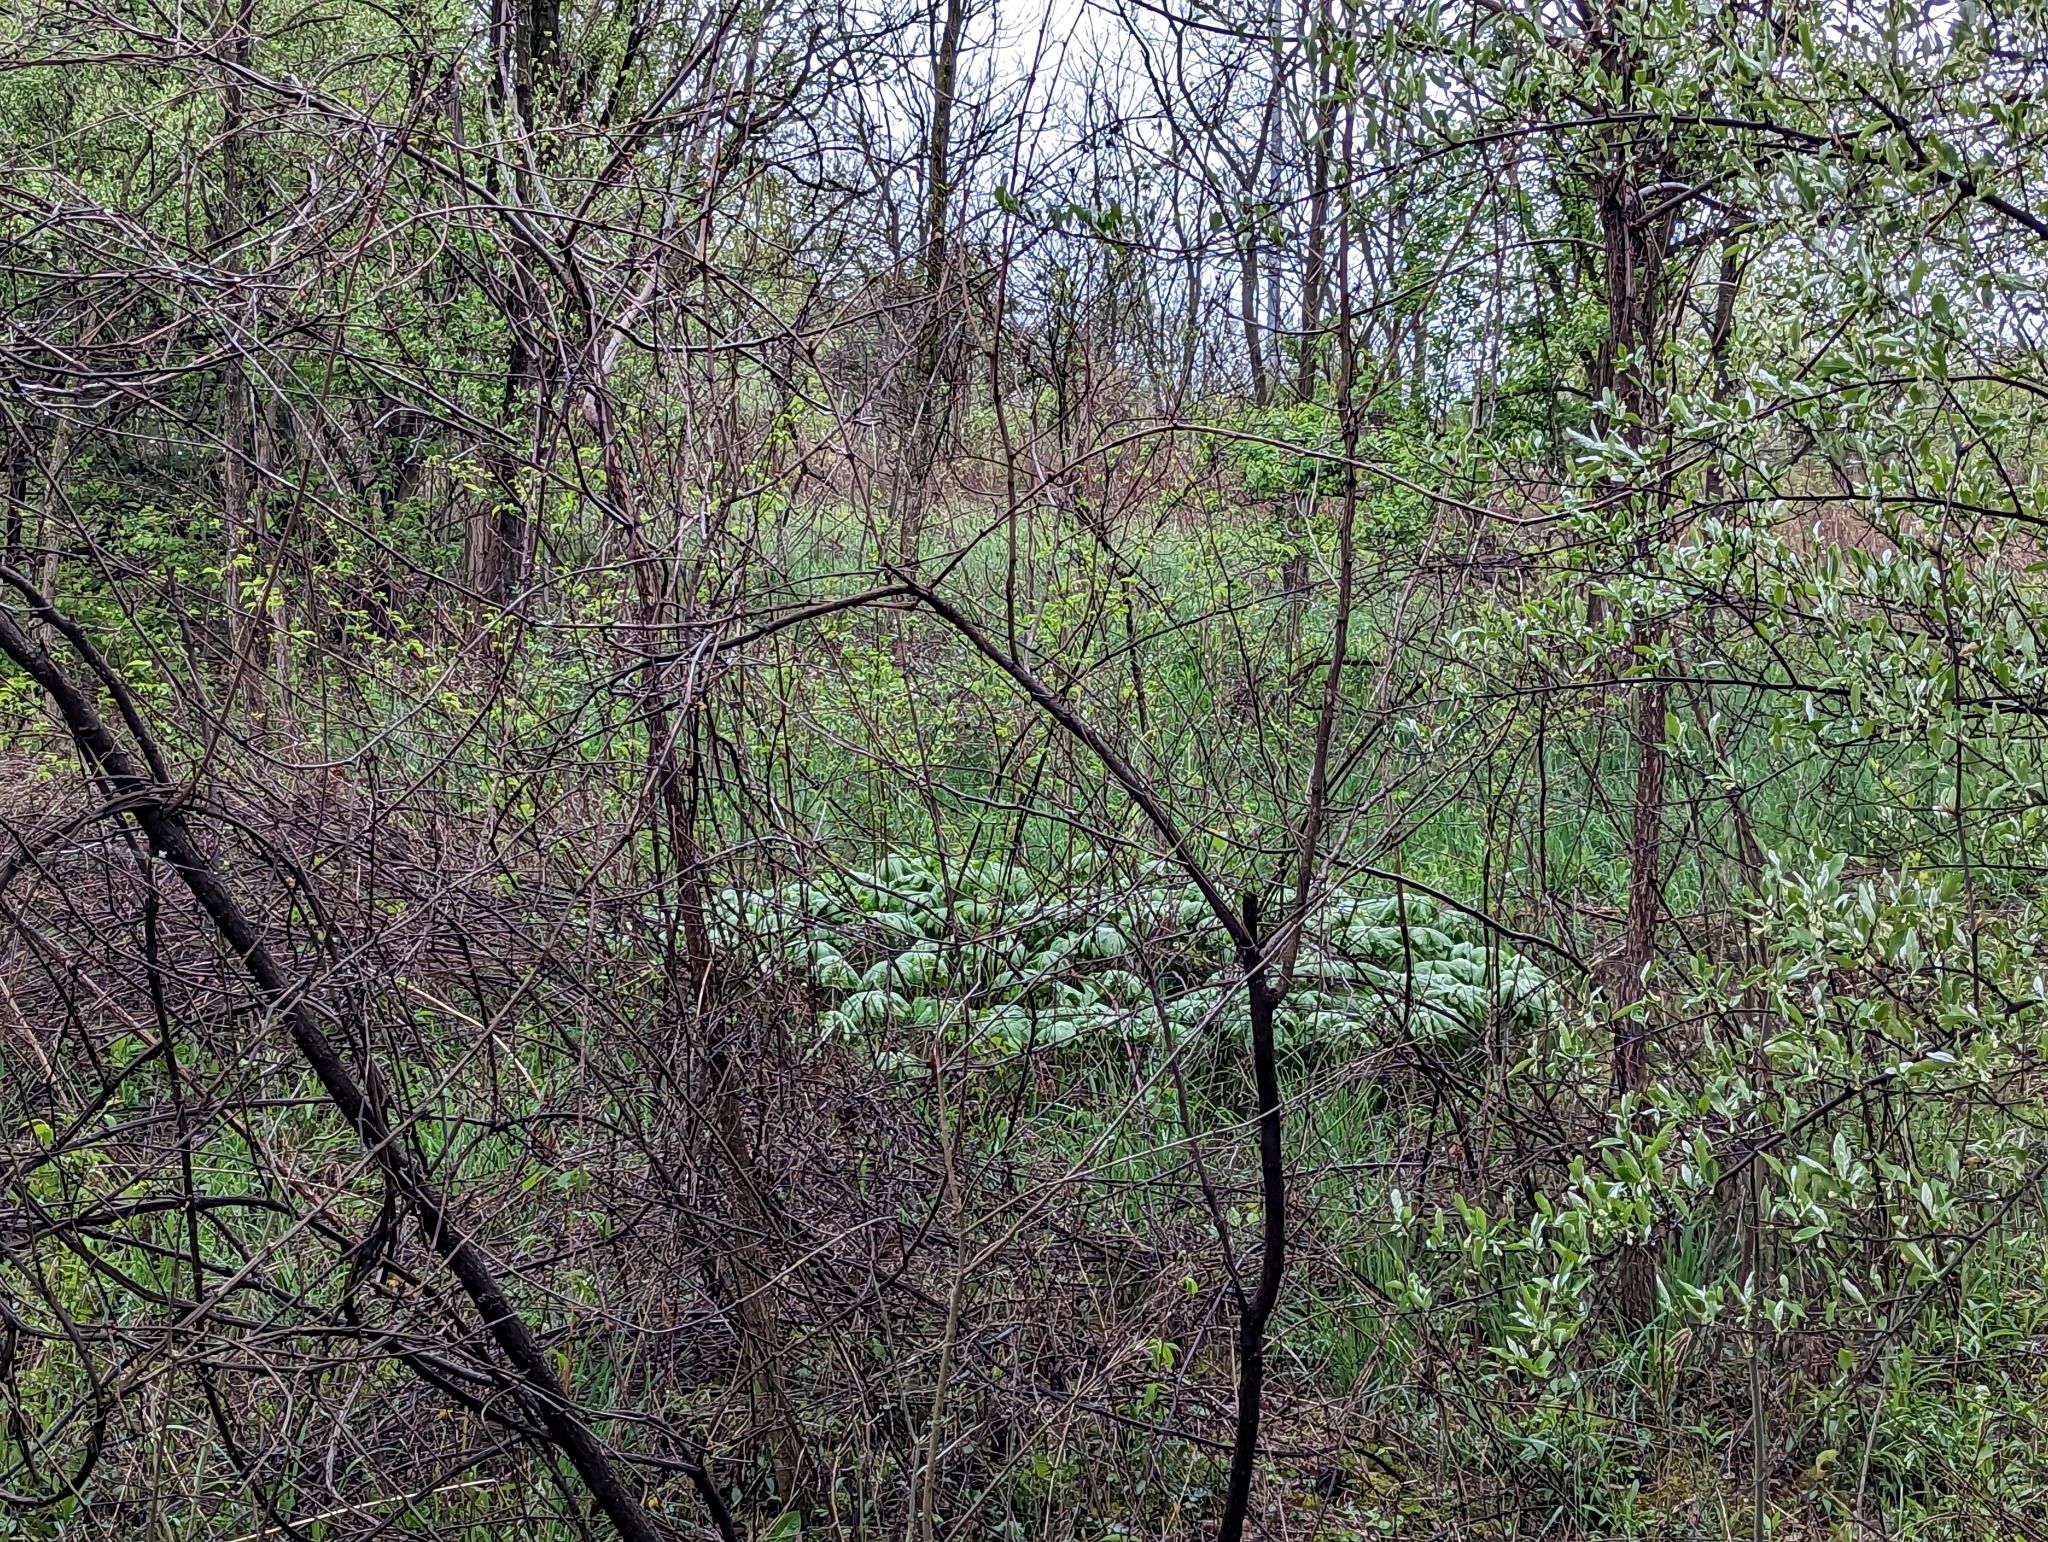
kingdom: Plantae
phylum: Tracheophyta
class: Magnoliopsida
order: Ranunculales
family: Berberidaceae
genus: Podophyllum
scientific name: Podophyllum peltatum
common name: Wild mandrake
